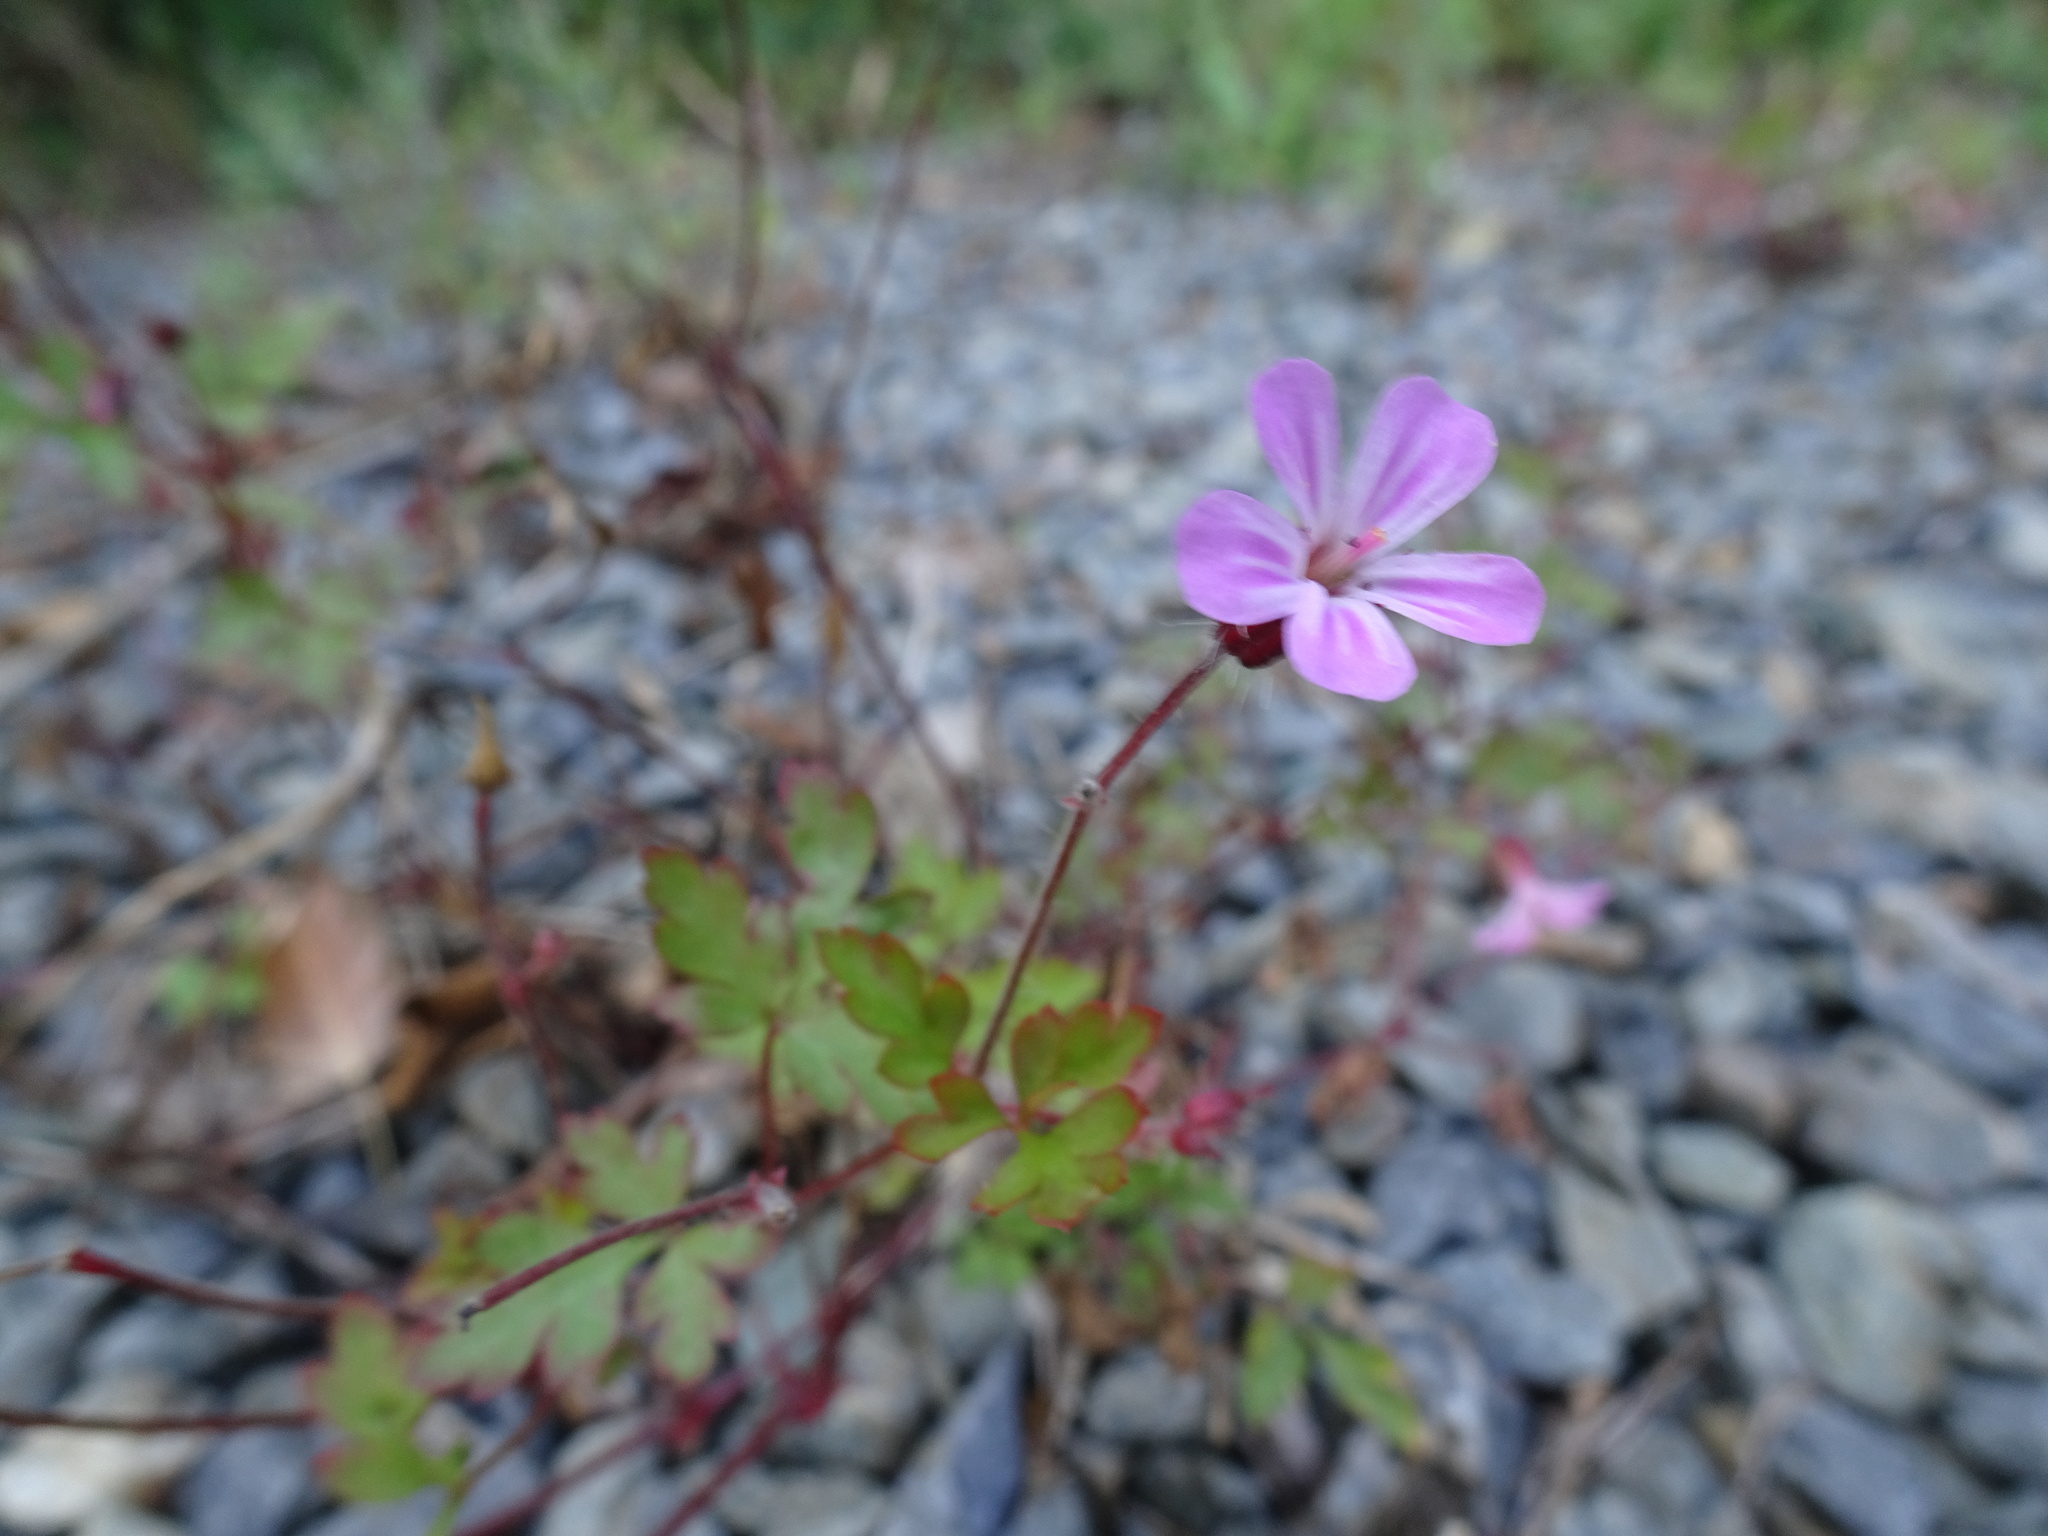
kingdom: Plantae
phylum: Tracheophyta
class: Magnoliopsida
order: Geraniales
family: Geraniaceae
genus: Geranium
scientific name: Geranium robertianum
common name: Herb-robert
